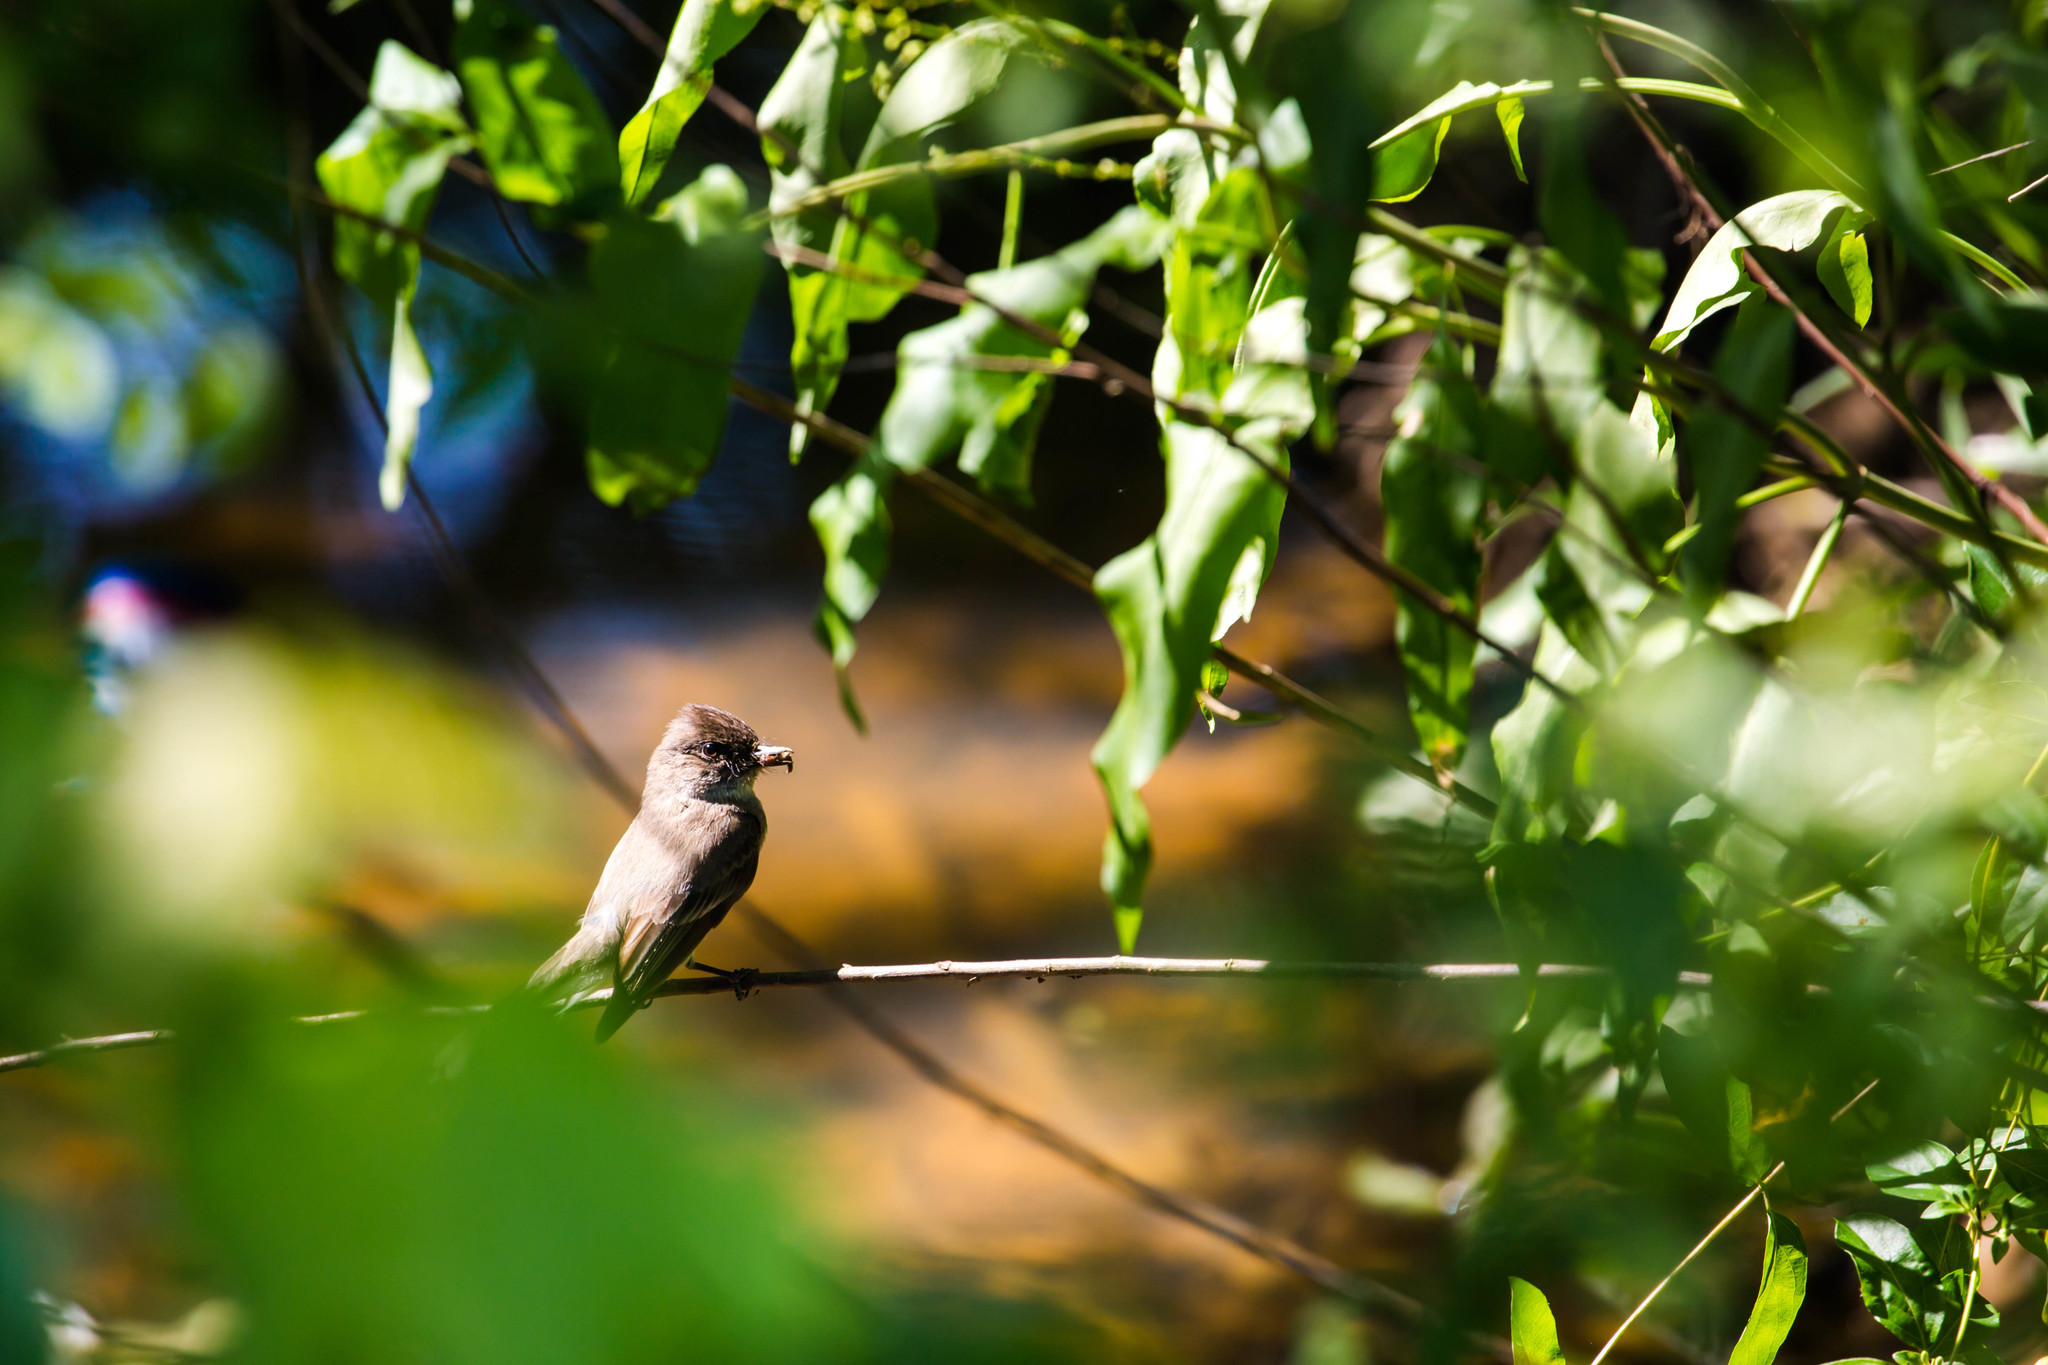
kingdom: Animalia
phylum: Chordata
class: Aves
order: Passeriformes
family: Tyrannidae
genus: Sayornis
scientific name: Sayornis phoebe
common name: Eastern phoebe
